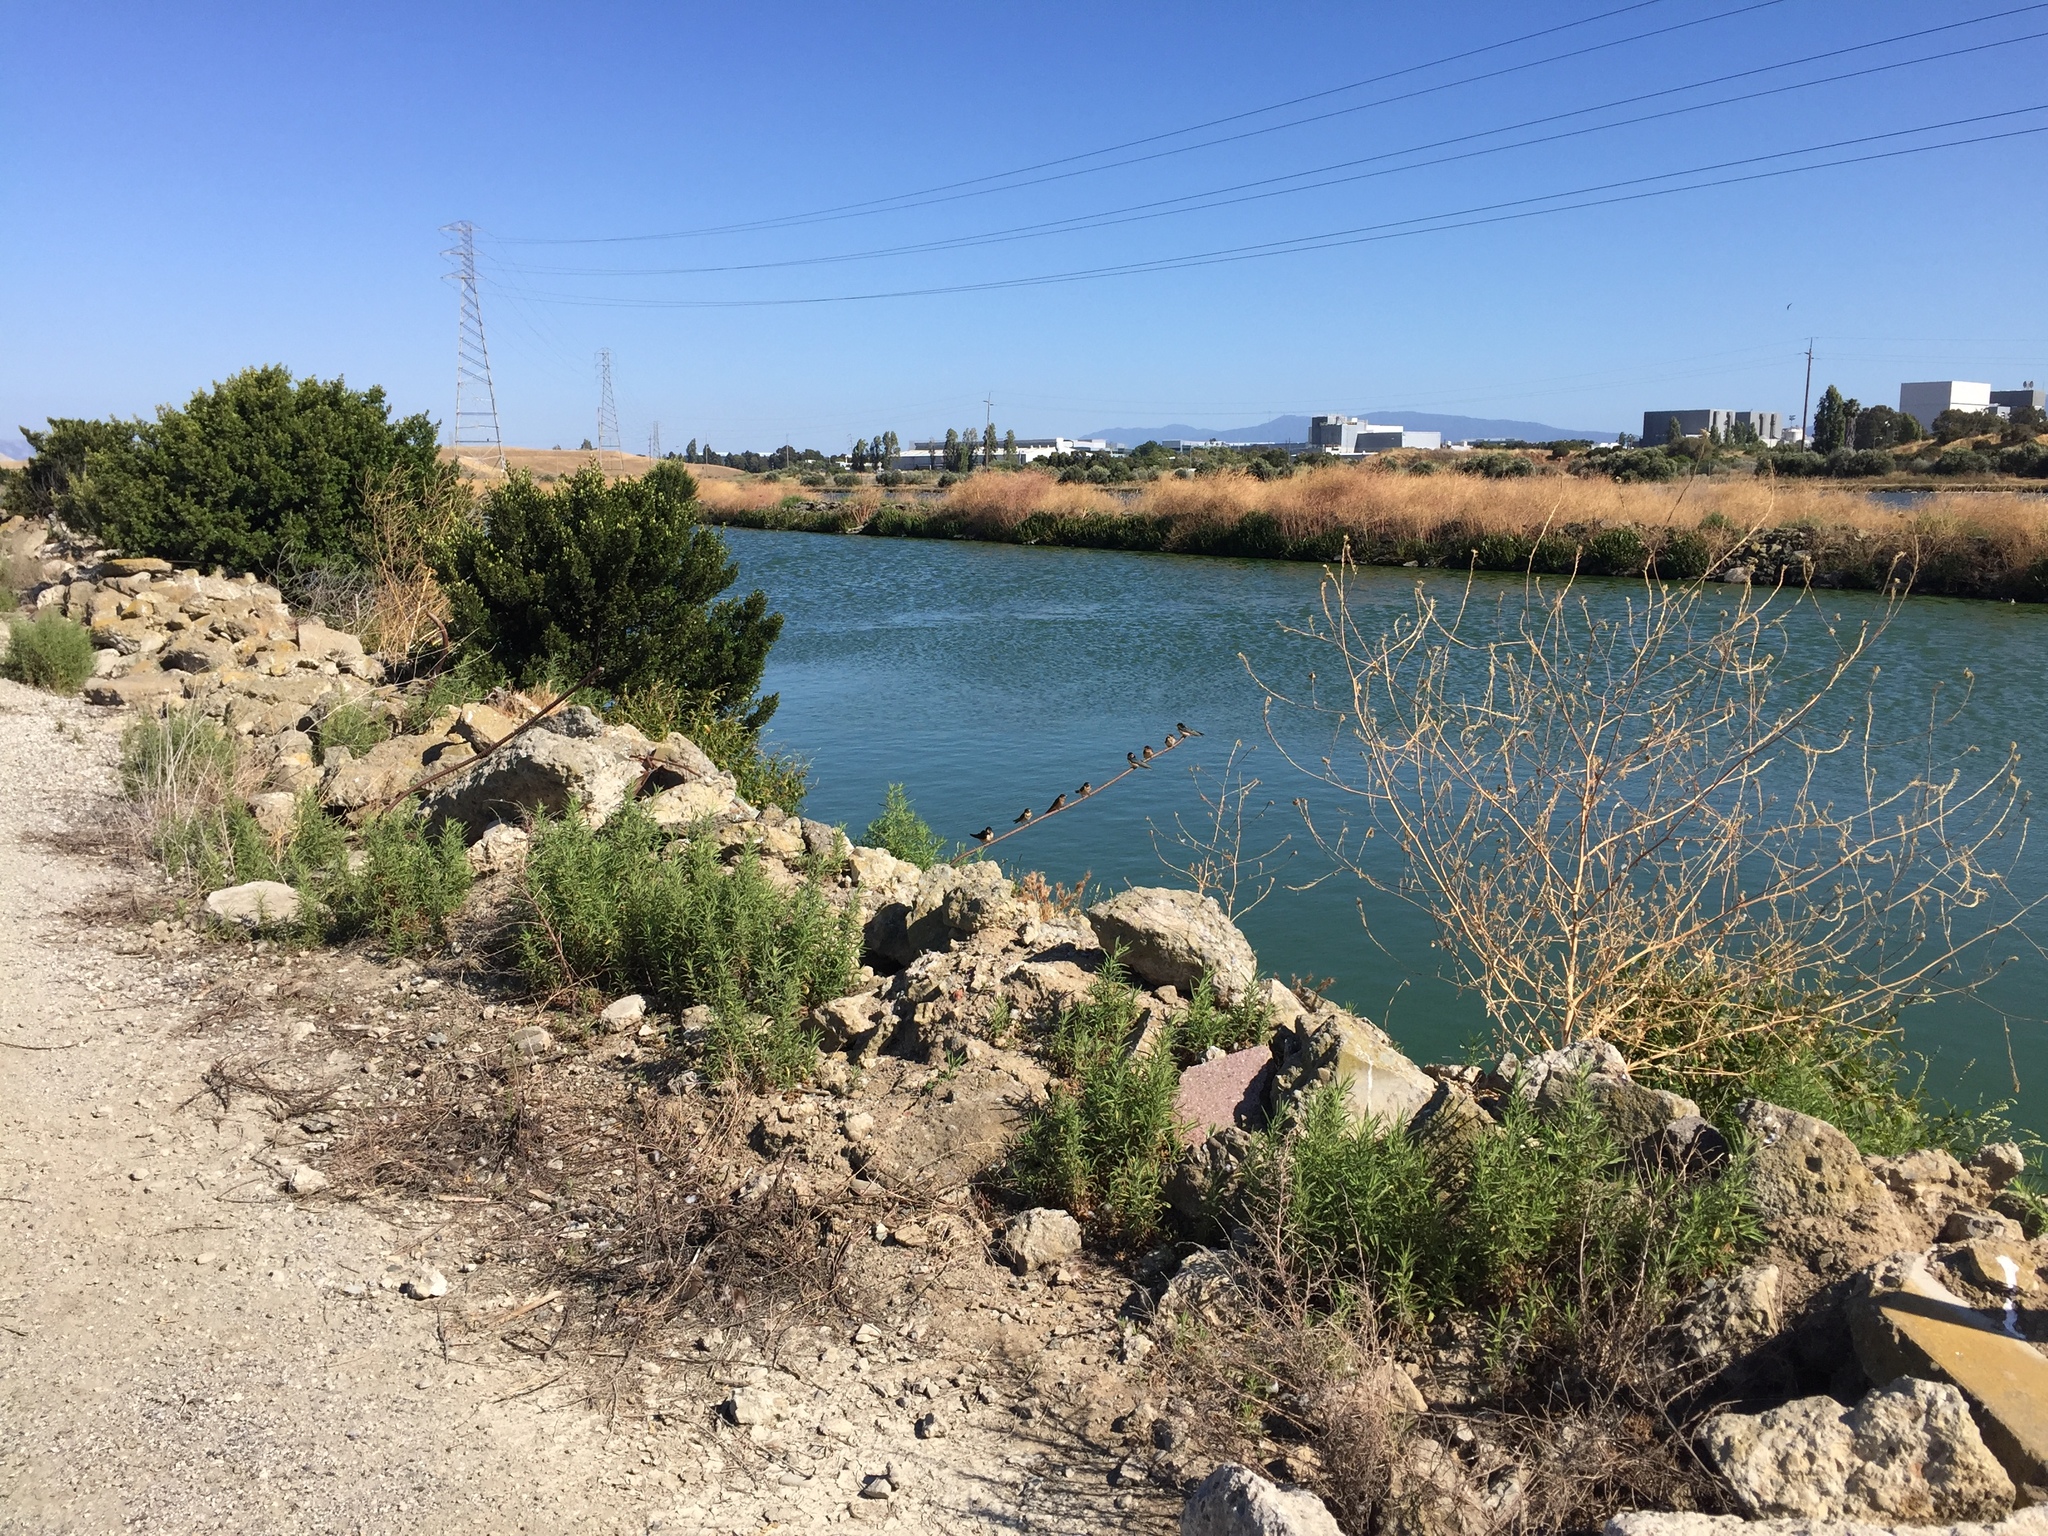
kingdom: Animalia
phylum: Chordata
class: Aves
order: Passeriformes
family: Hirundinidae
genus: Hirundo
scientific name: Hirundo rustica
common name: Barn swallow
